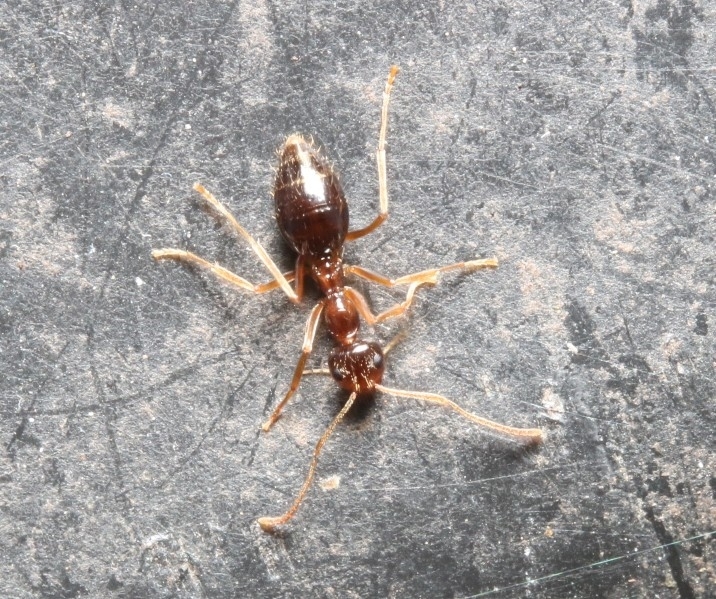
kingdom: Animalia
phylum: Arthropoda
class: Insecta
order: Hymenoptera
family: Formicidae
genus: Prenolepis
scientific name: Prenolepis imparis
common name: Small honey ant
